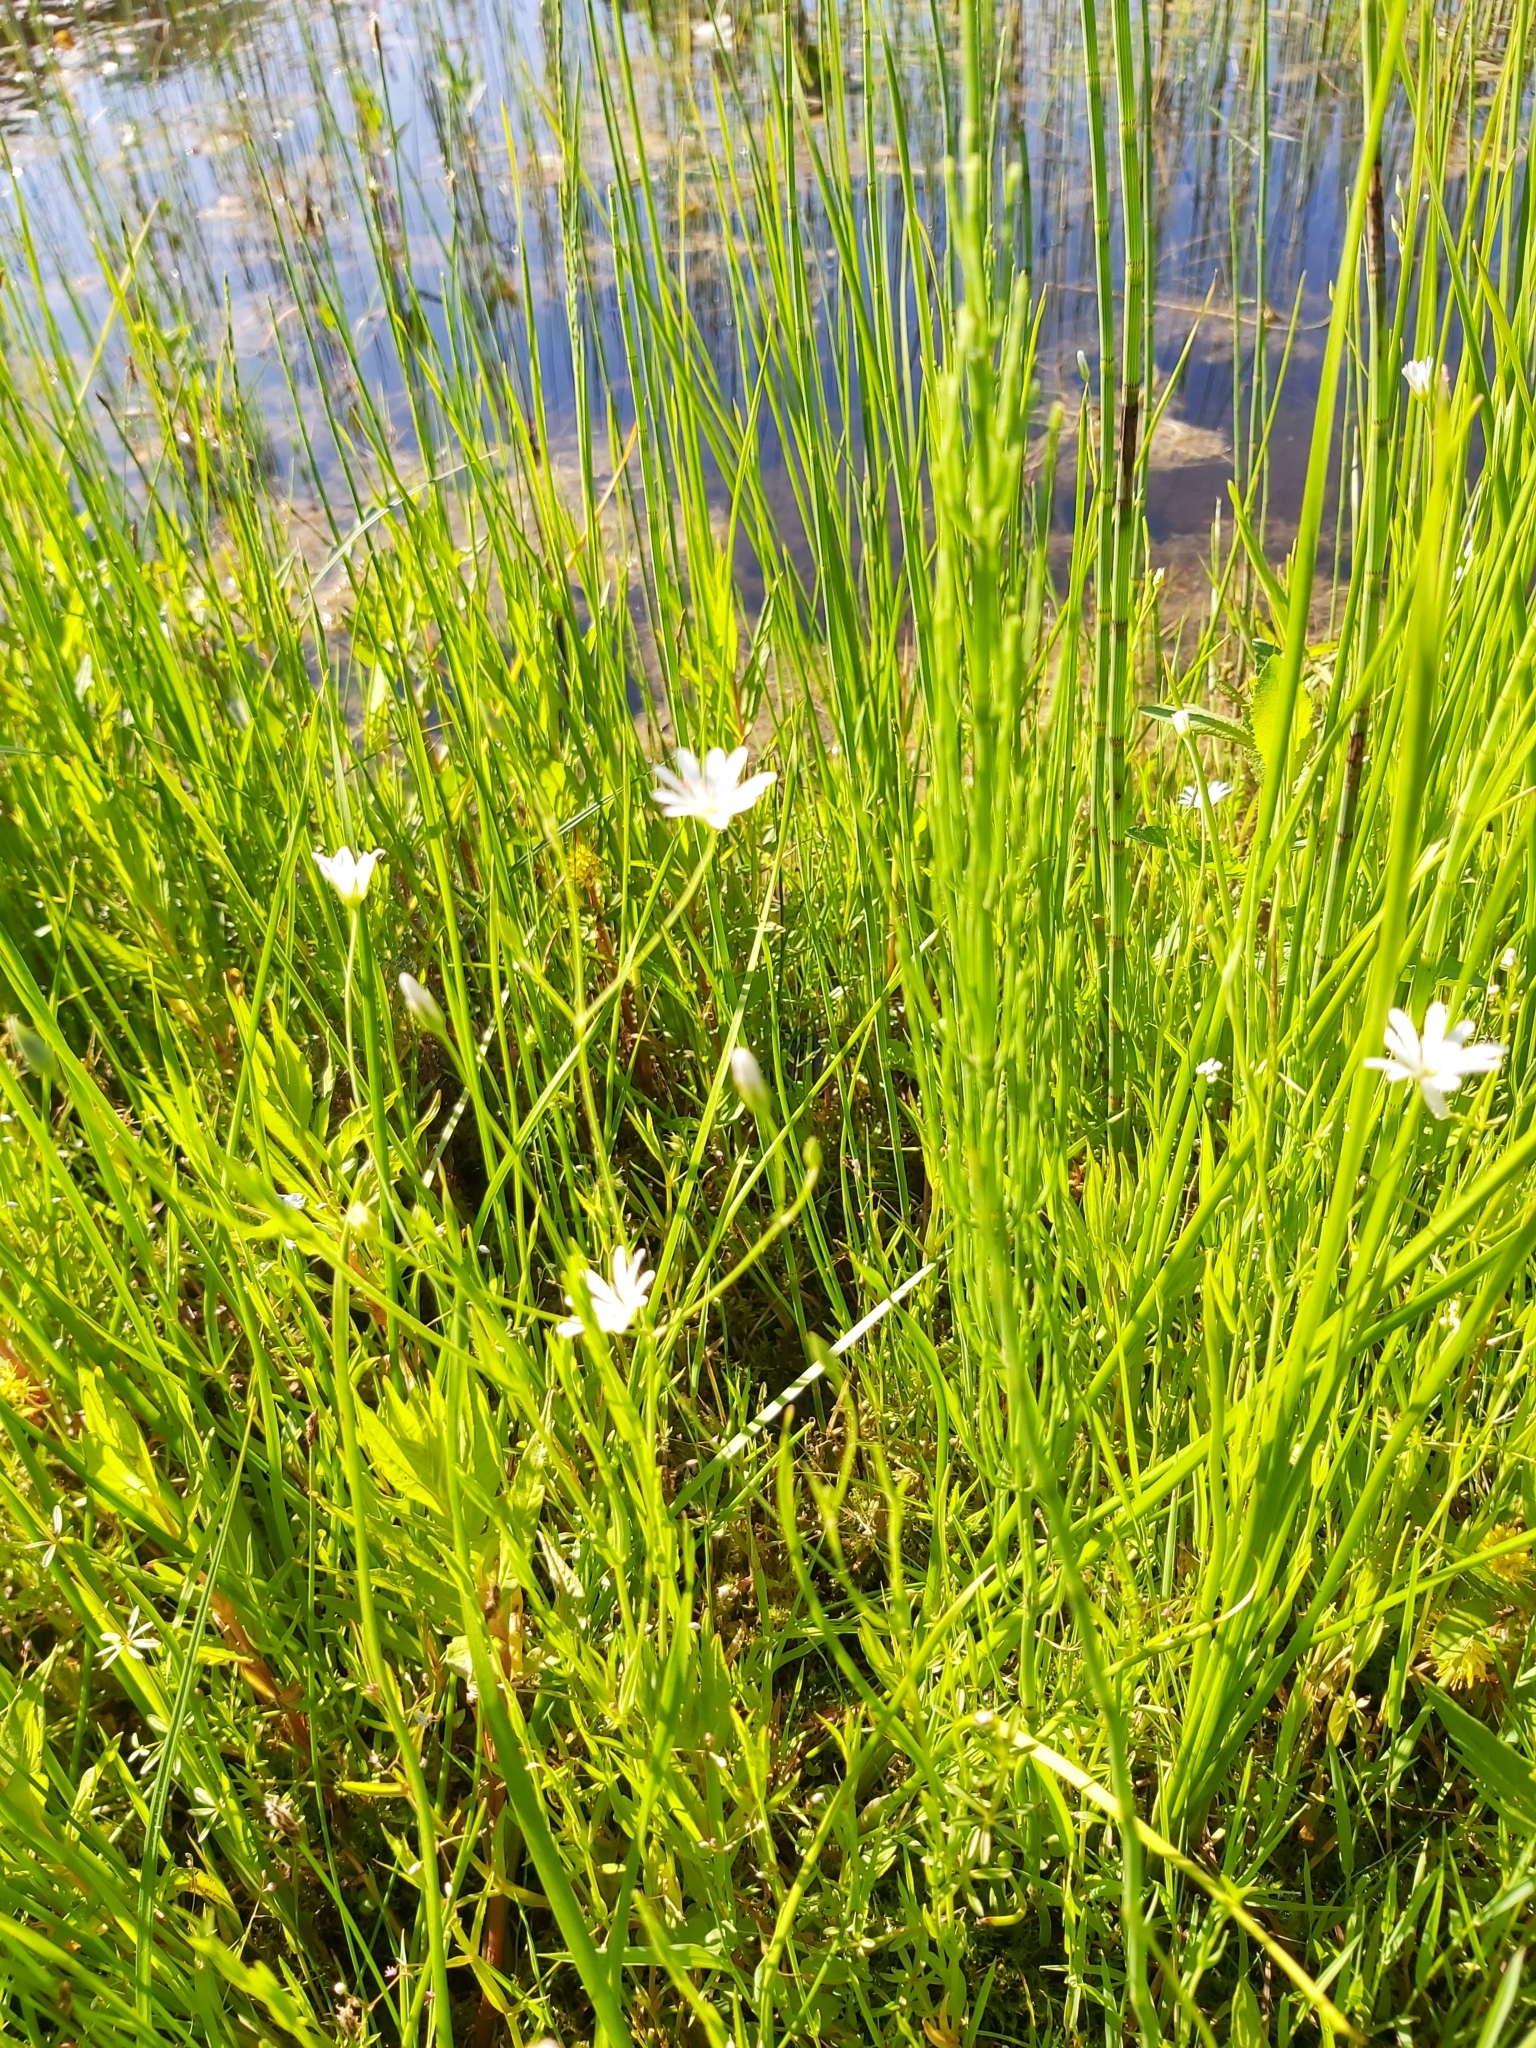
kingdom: Plantae
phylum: Tracheophyta
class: Magnoliopsida
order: Caryophyllales
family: Caryophyllaceae
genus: Stellaria
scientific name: Stellaria palustris
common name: Marsh stitchwort
